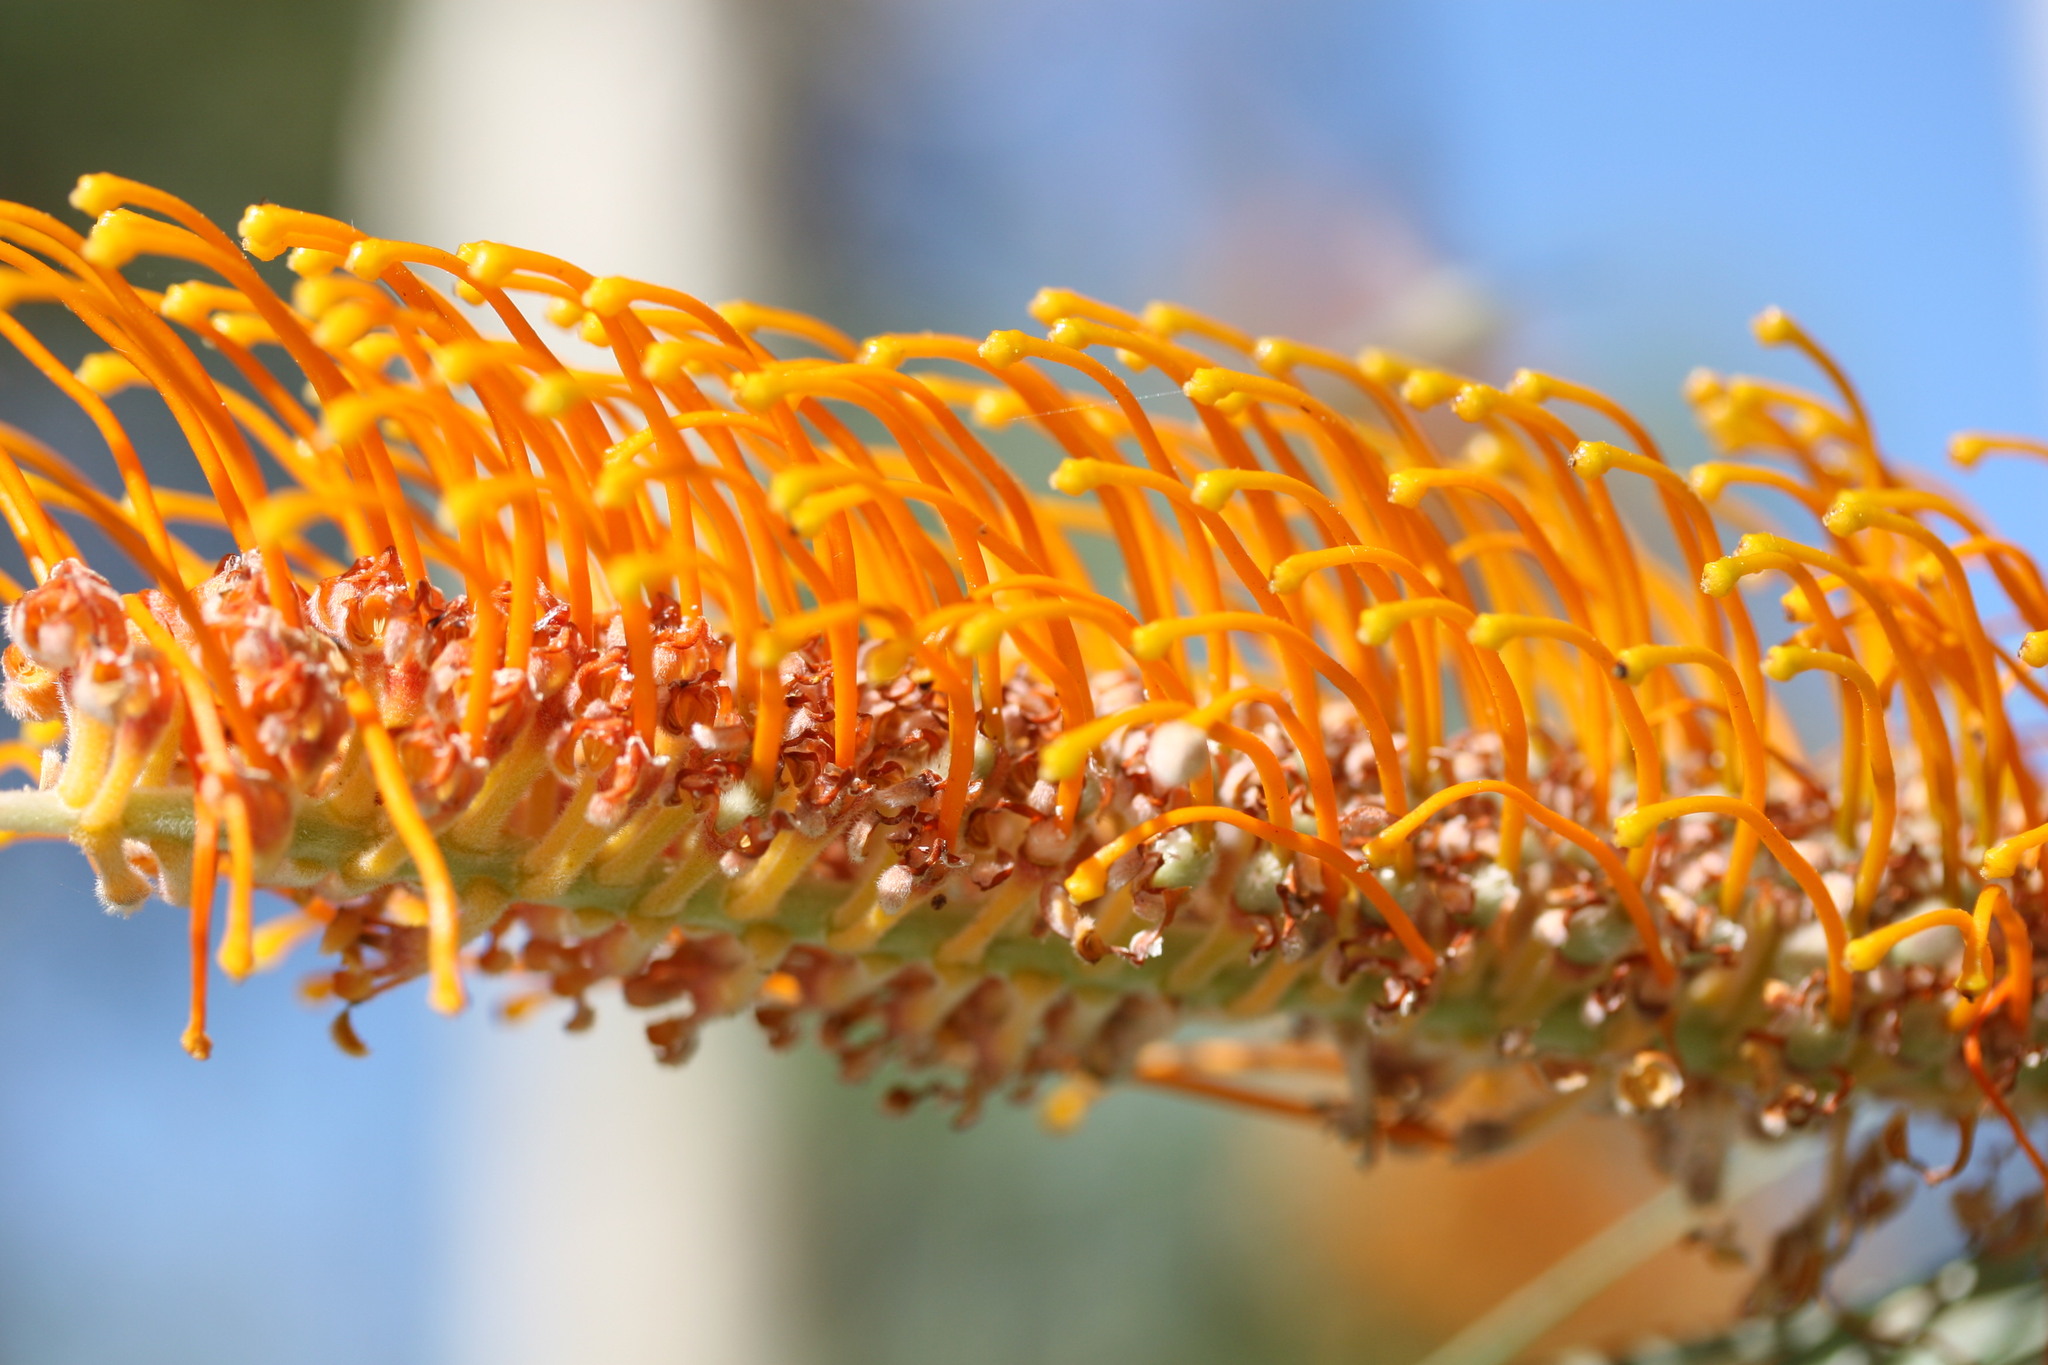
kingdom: Plantae
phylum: Tracheophyta
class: Magnoliopsida
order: Proteales
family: Proteaceae
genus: Grevillea
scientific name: Grevillea pteridifolia
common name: Golden grevillea
